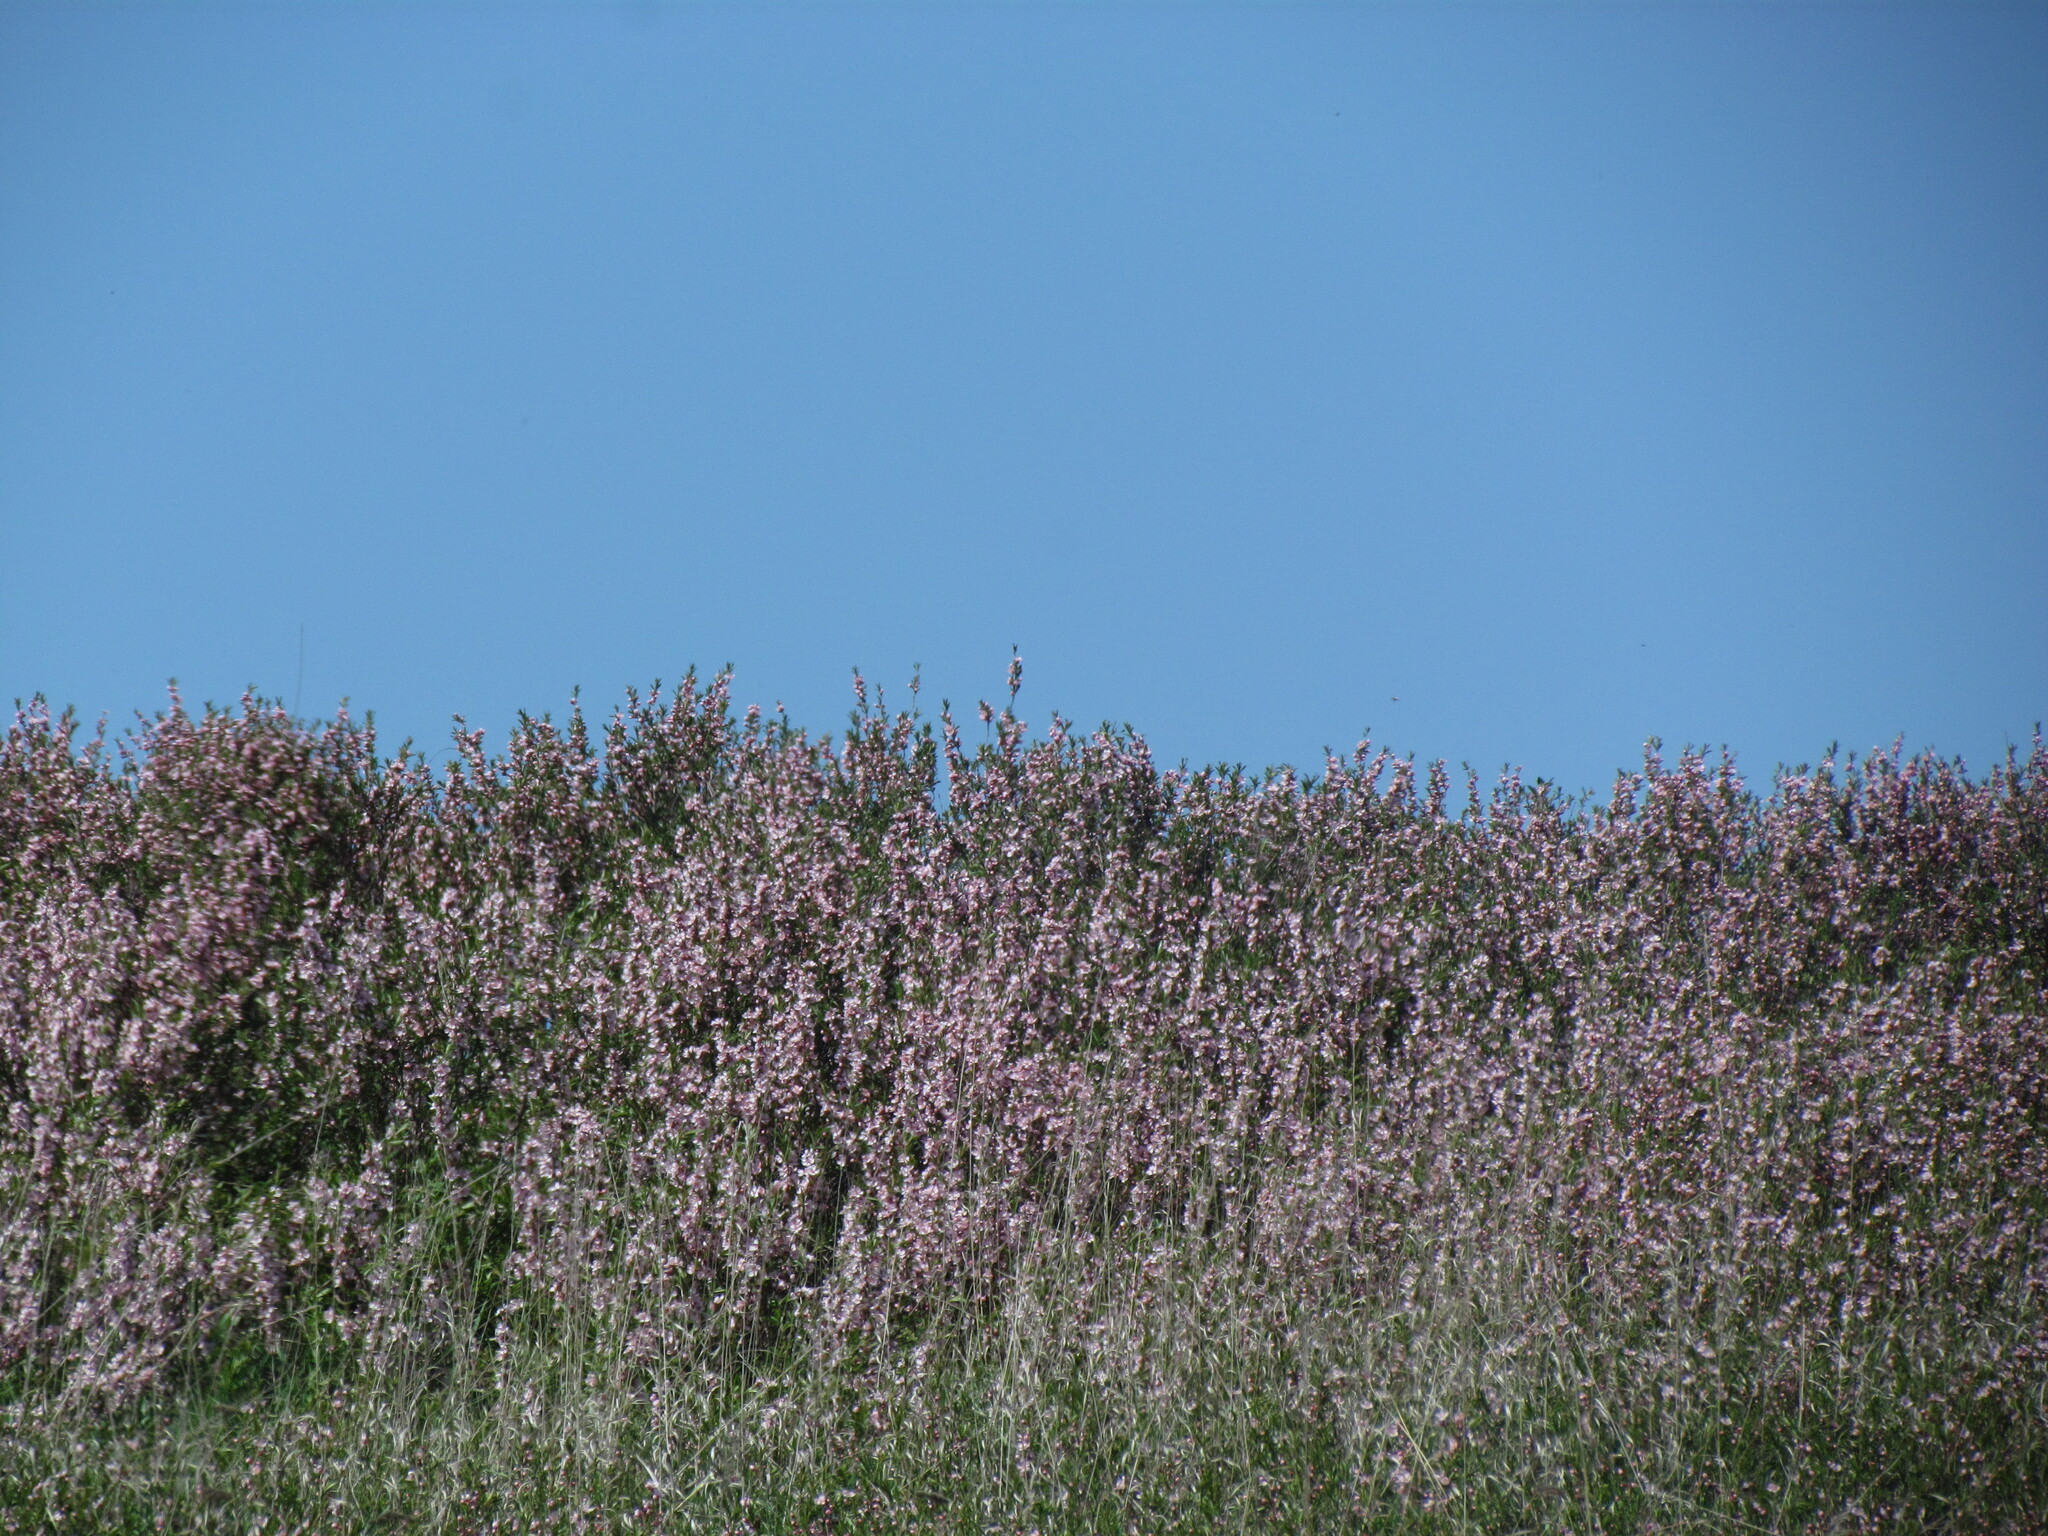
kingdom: Plantae
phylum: Tracheophyta
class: Magnoliopsida
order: Rosales
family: Rosaceae
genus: Prunus
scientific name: Prunus tenella
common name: Dwarf russian almond
